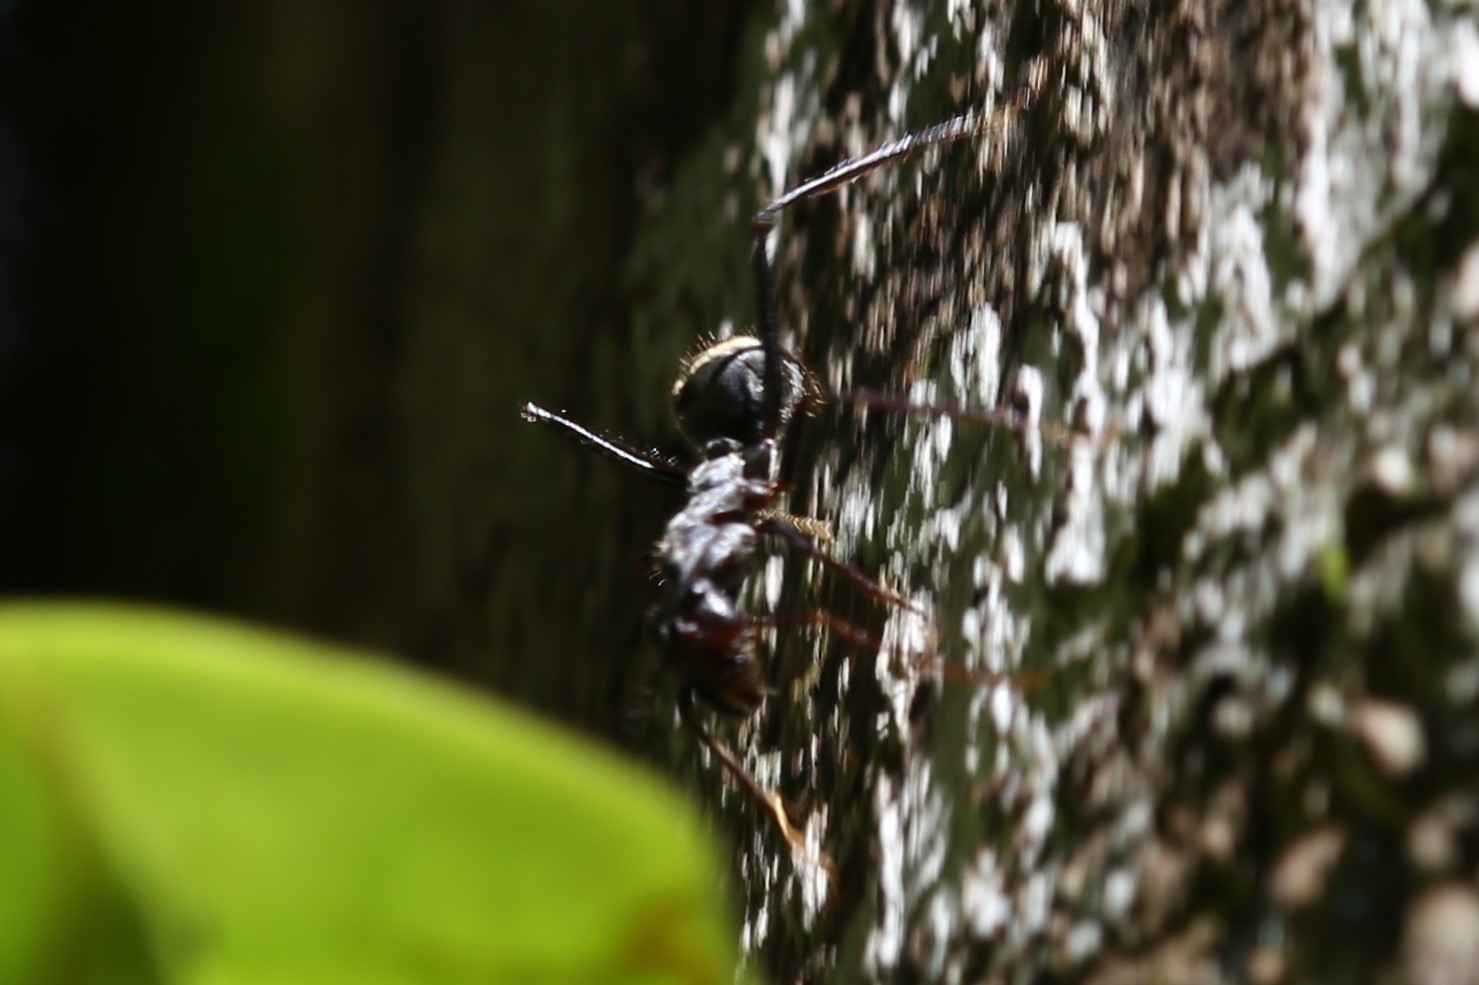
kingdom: Animalia
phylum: Arthropoda
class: Insecta
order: Hymenoptera
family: Formicidae
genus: Notostigma
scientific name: Notostigma carazzii
